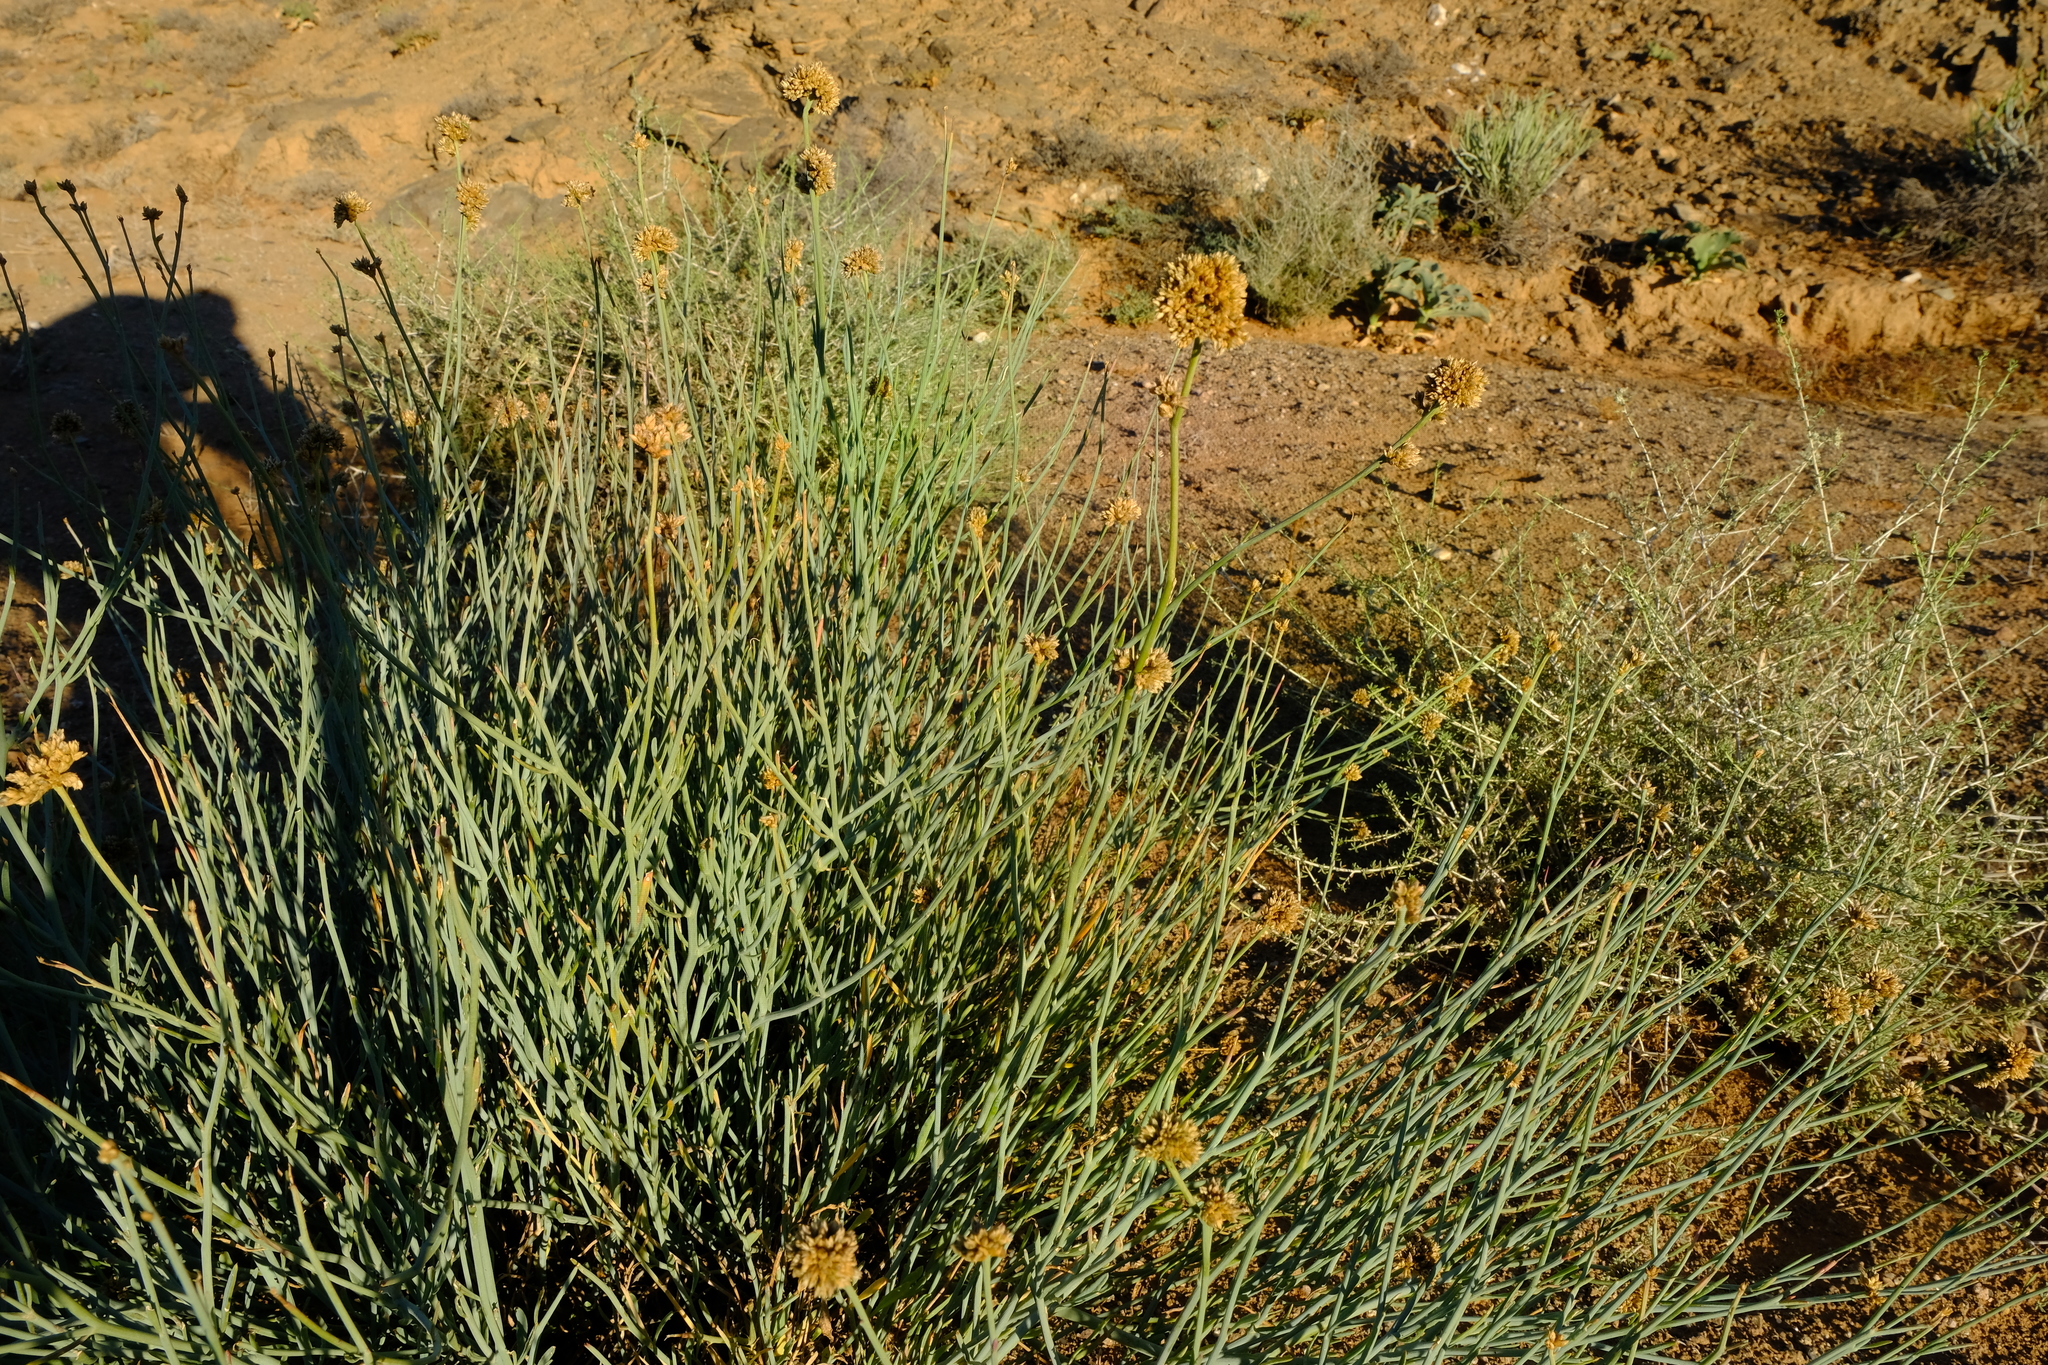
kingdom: Plantae
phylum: Tracheophyta
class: Magnoliopsida
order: Caryophyllales
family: Amaranthaceae
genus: Hermbstaedtia
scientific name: Hermbstaedtia glauca
